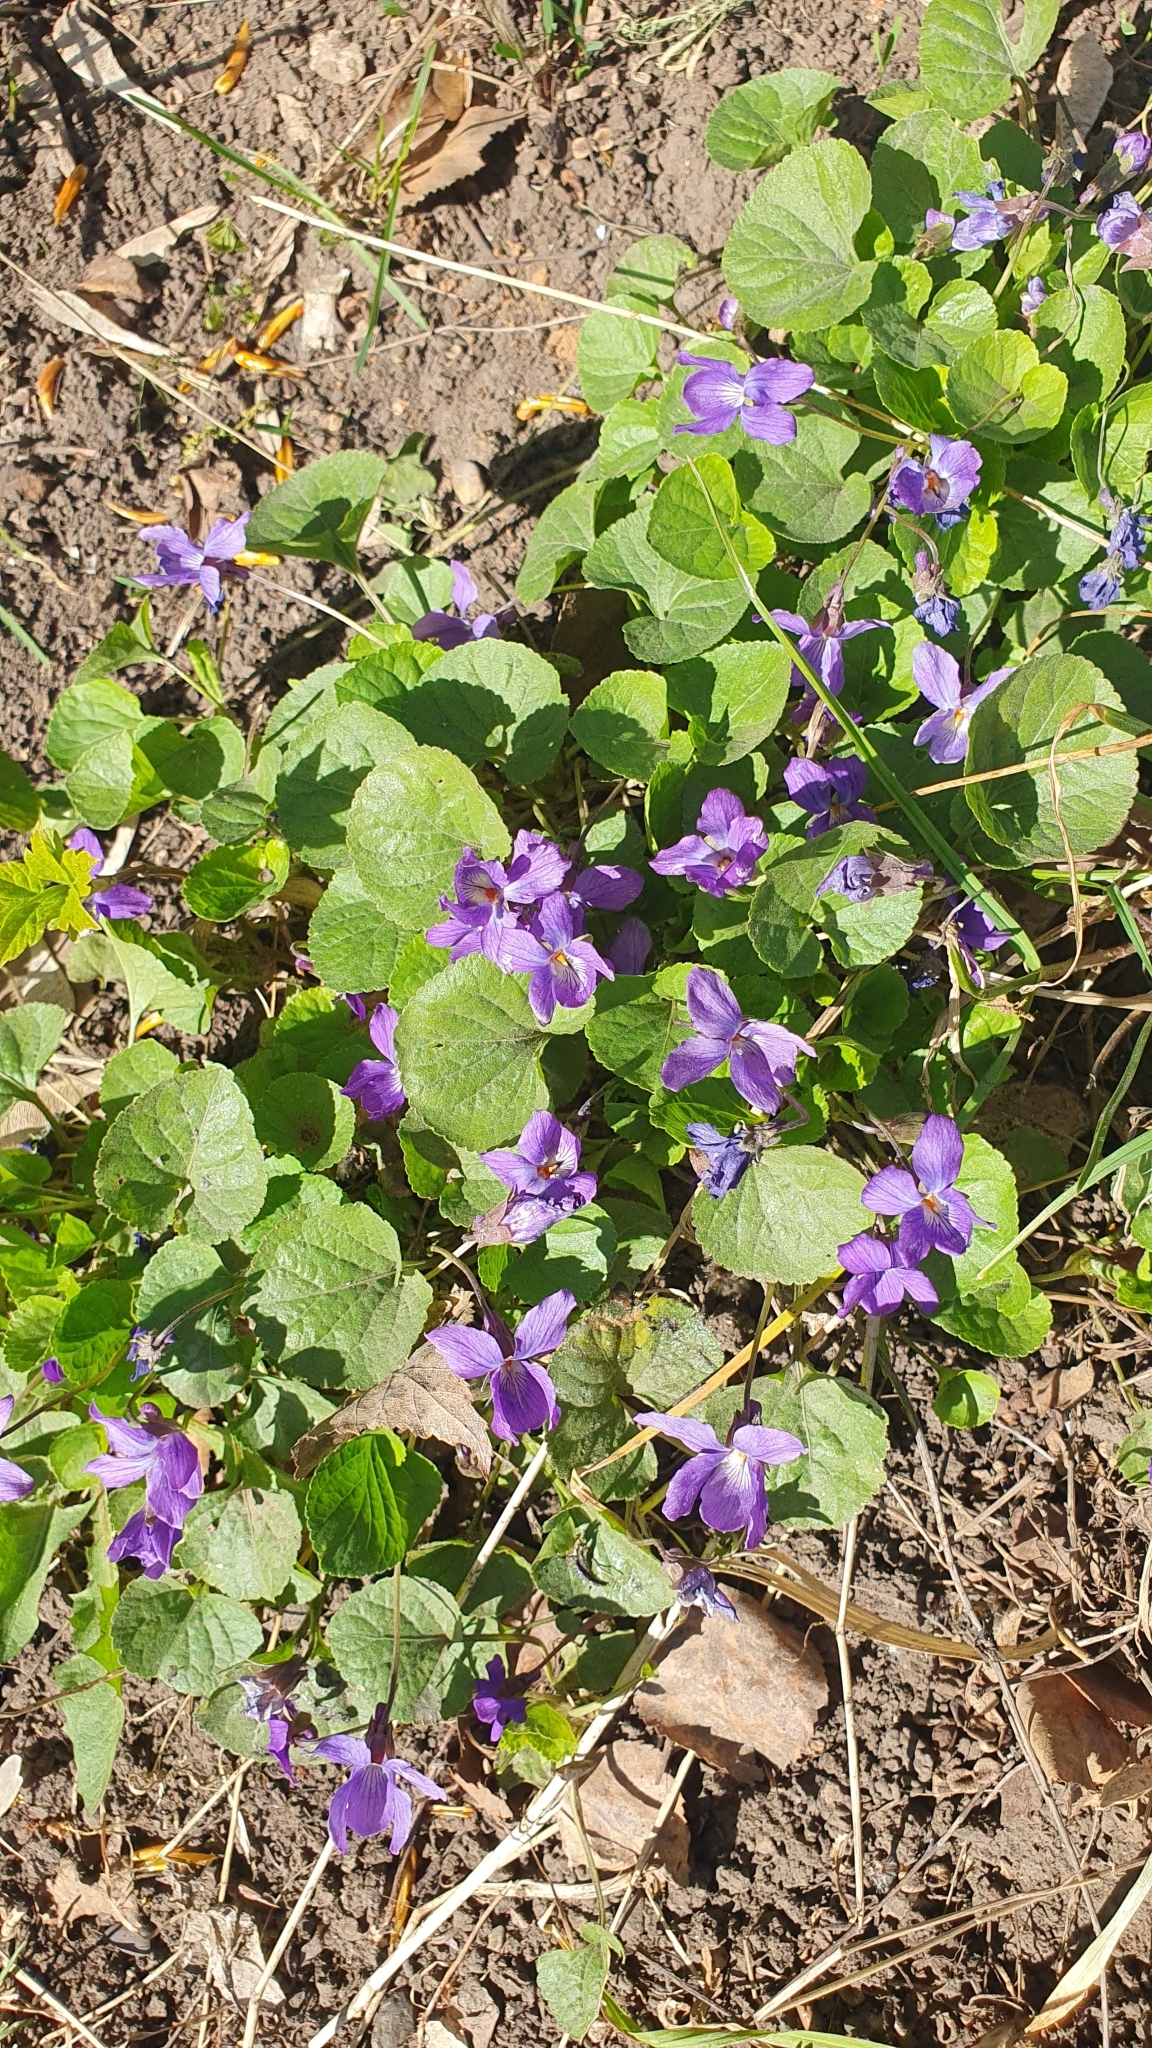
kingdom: Plantae
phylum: Tracheophyta
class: Magnoliopsida
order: Malpighiales
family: Violaceae
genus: Viola
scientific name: Viola odorata
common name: Sweet violet
